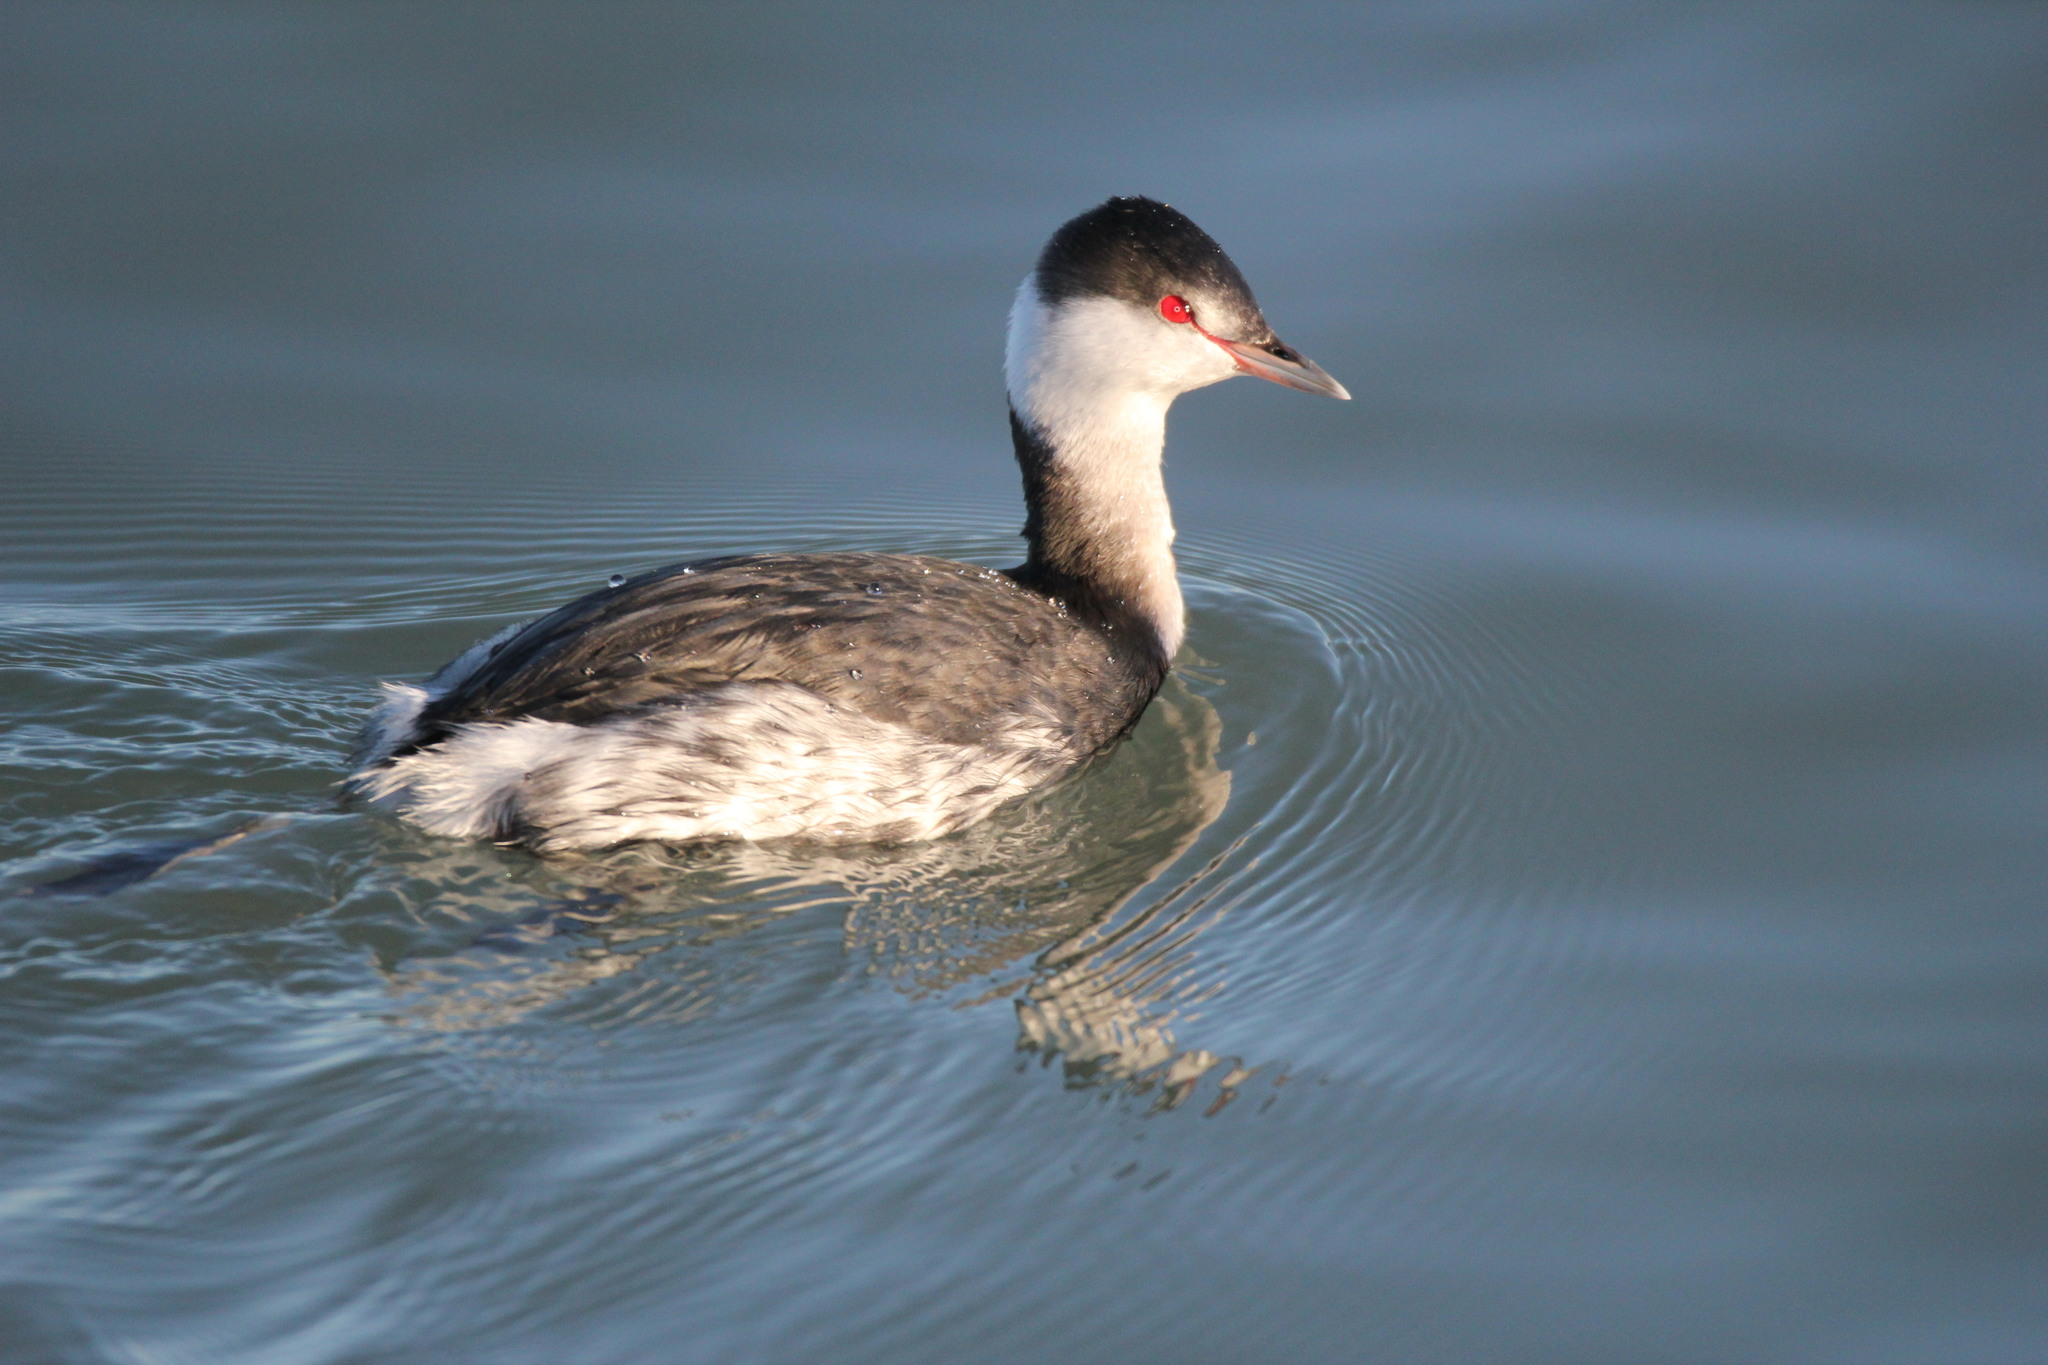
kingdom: Animalia
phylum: Chordata
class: Aves
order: Podicipediformes
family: Podicipedidae
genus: Podiceps
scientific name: Podiceps auritus
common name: Horned grebe
